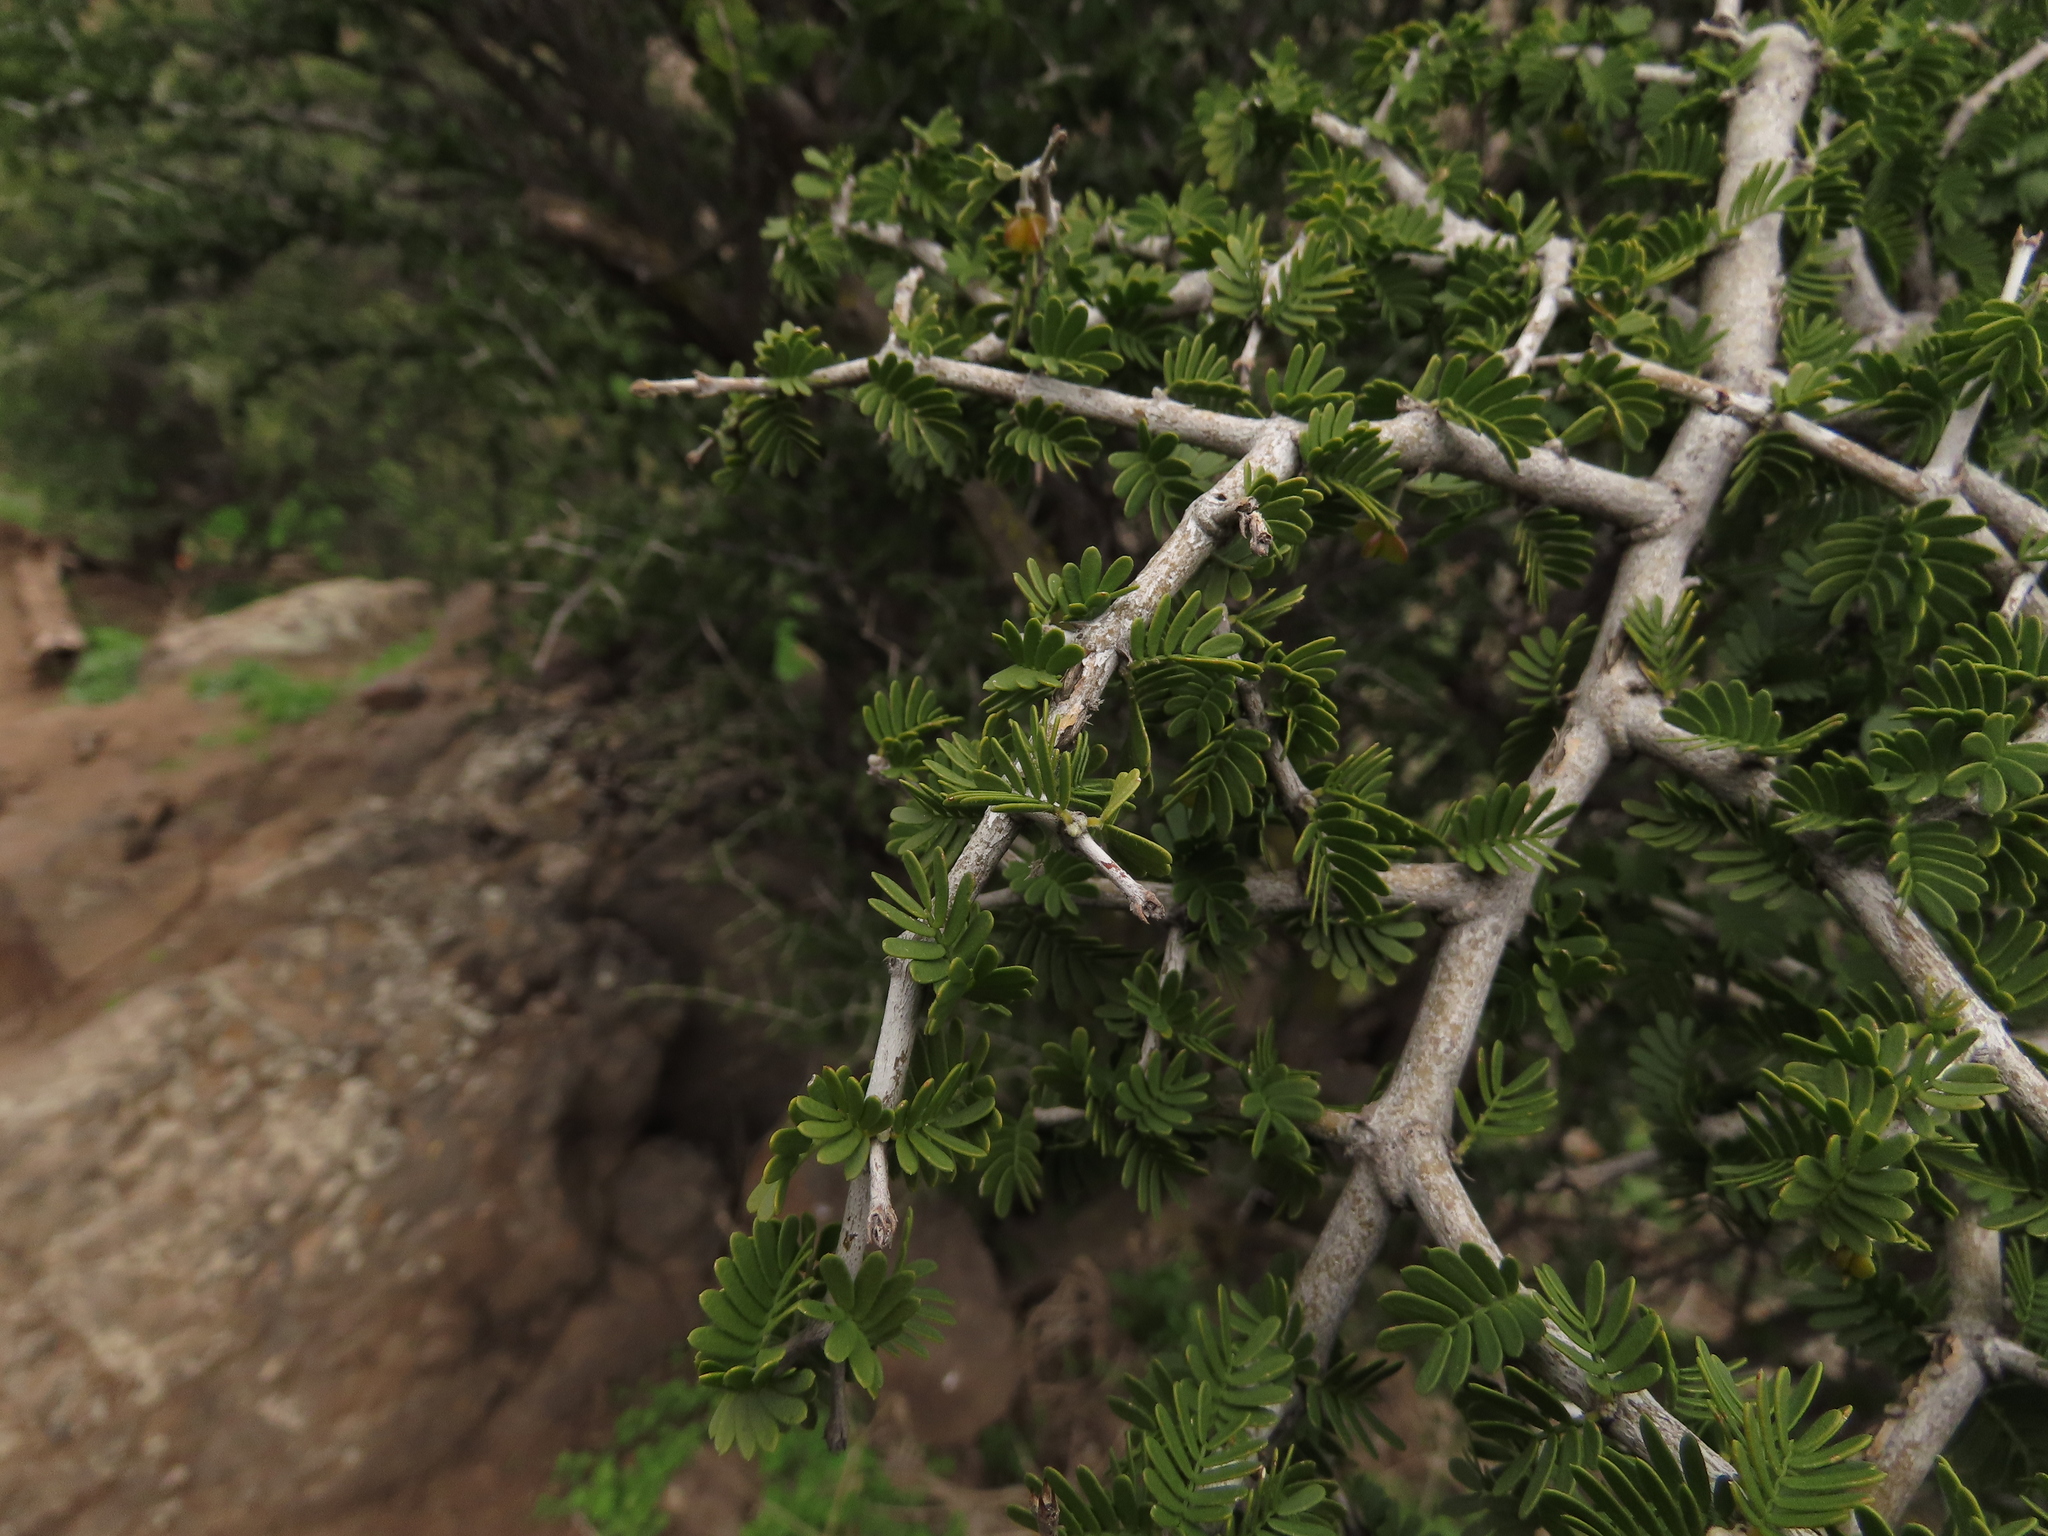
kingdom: Plantae
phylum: Tracheophyta
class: Magnoliopsida
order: Zygophyllales
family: Zygophyllaceae
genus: Porlieria
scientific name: Porlieria chilensis
